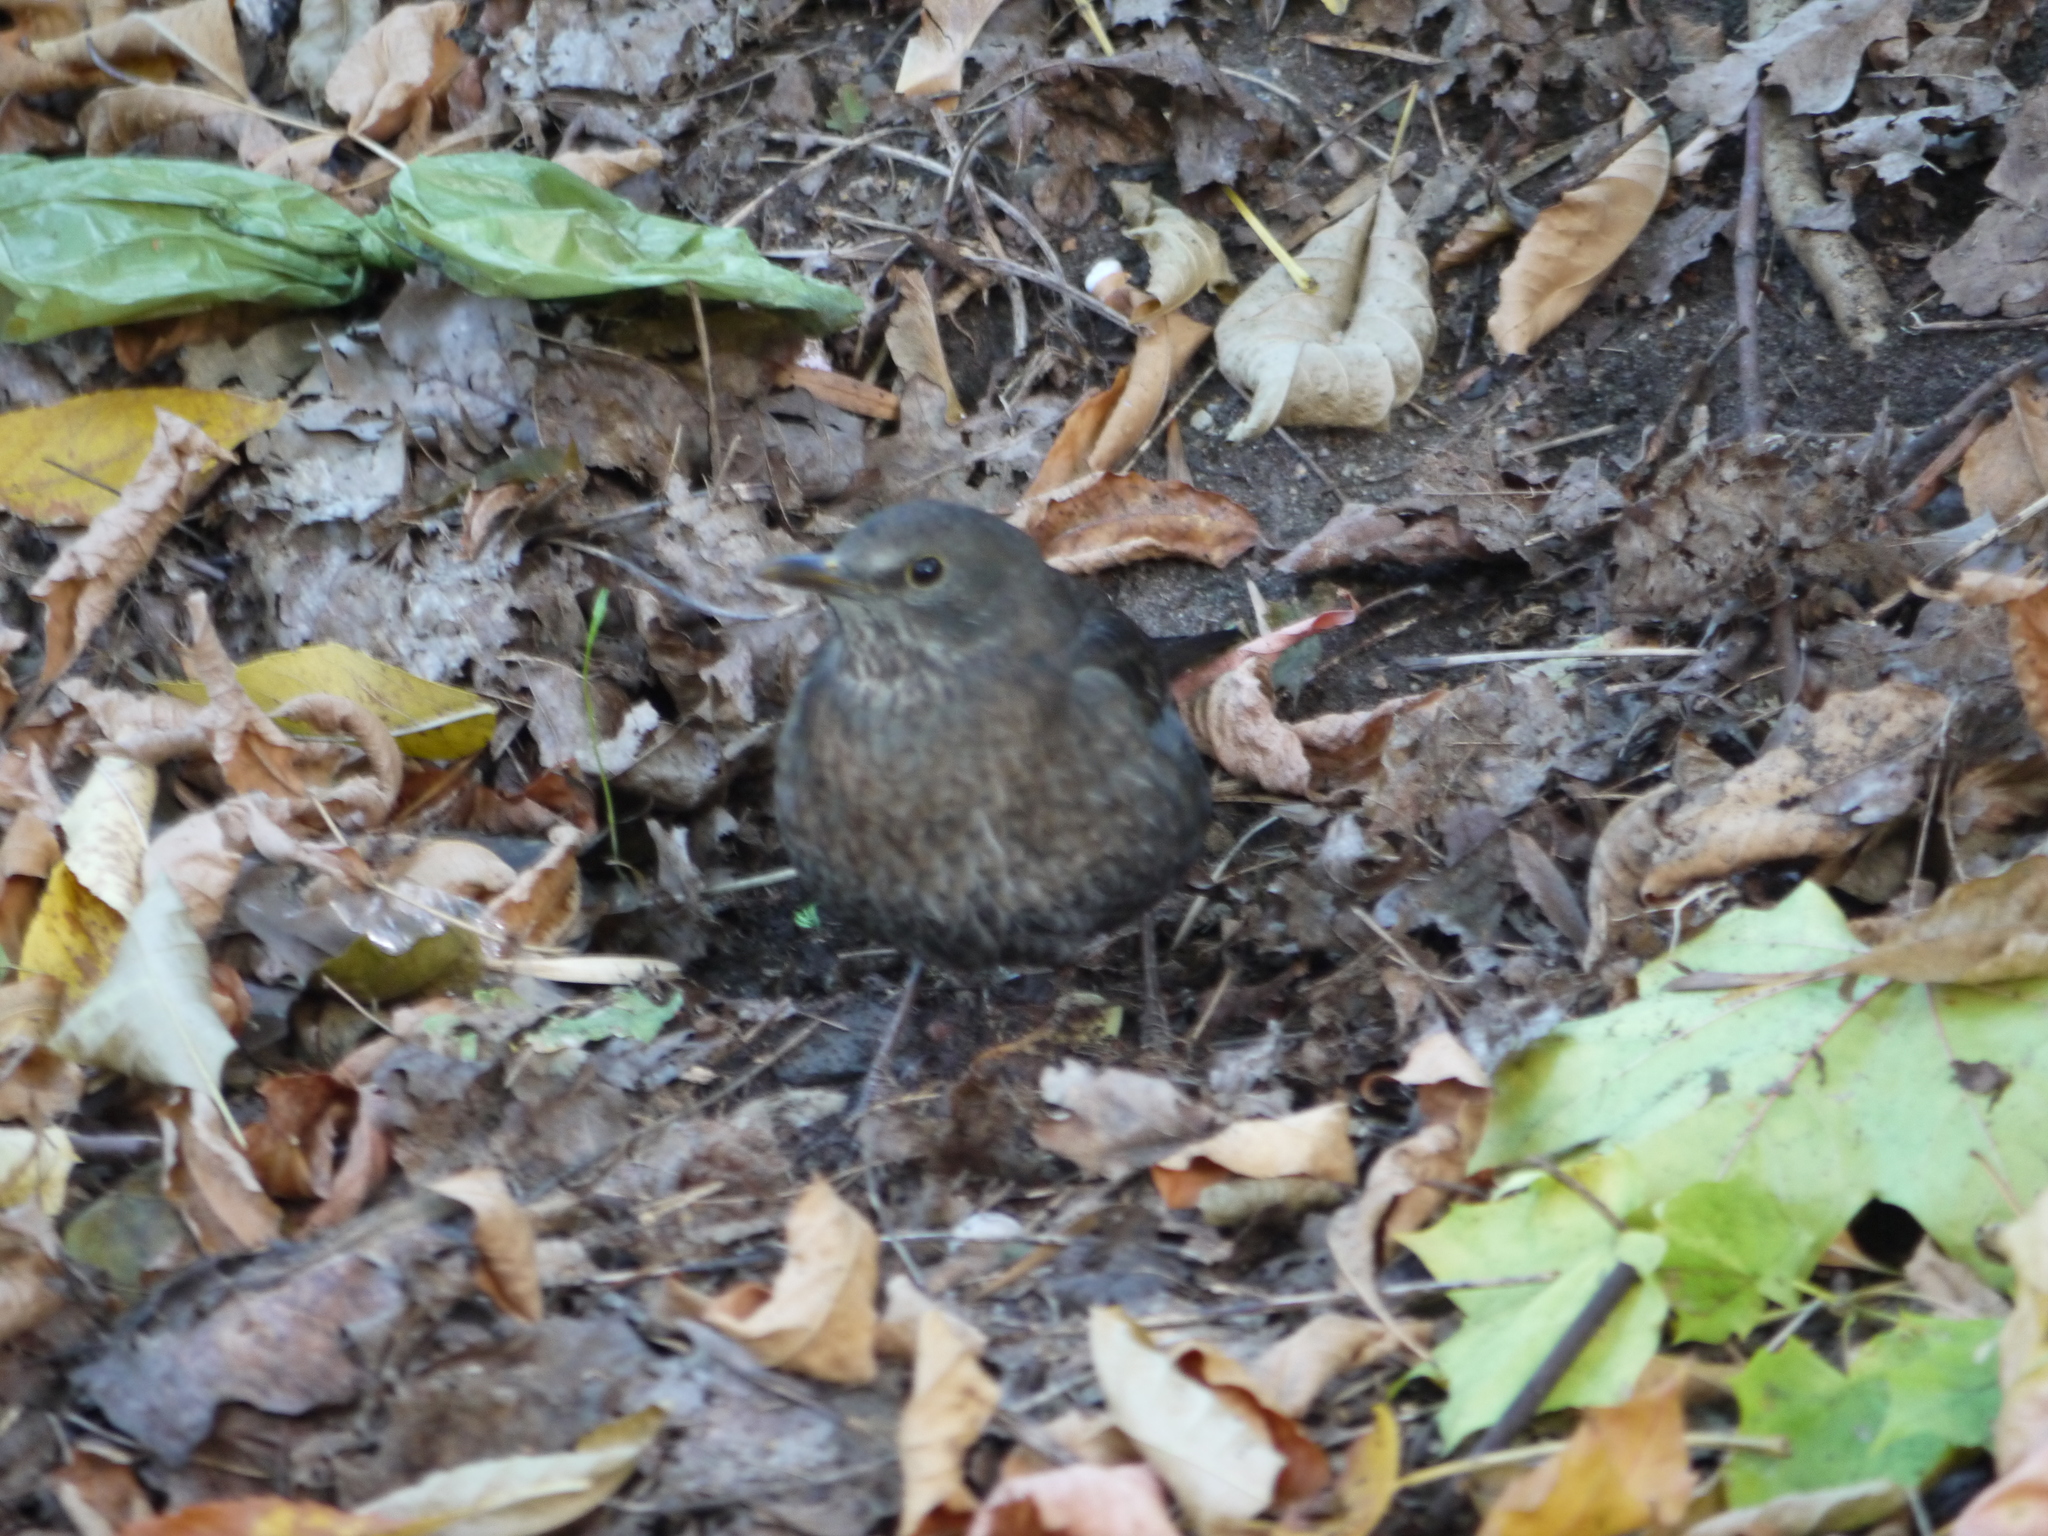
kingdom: Animalia
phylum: Chordata
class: Aves
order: Passeriformes
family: Turdidae
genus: Turdus
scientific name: Turdus merula
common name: Common blackbird
